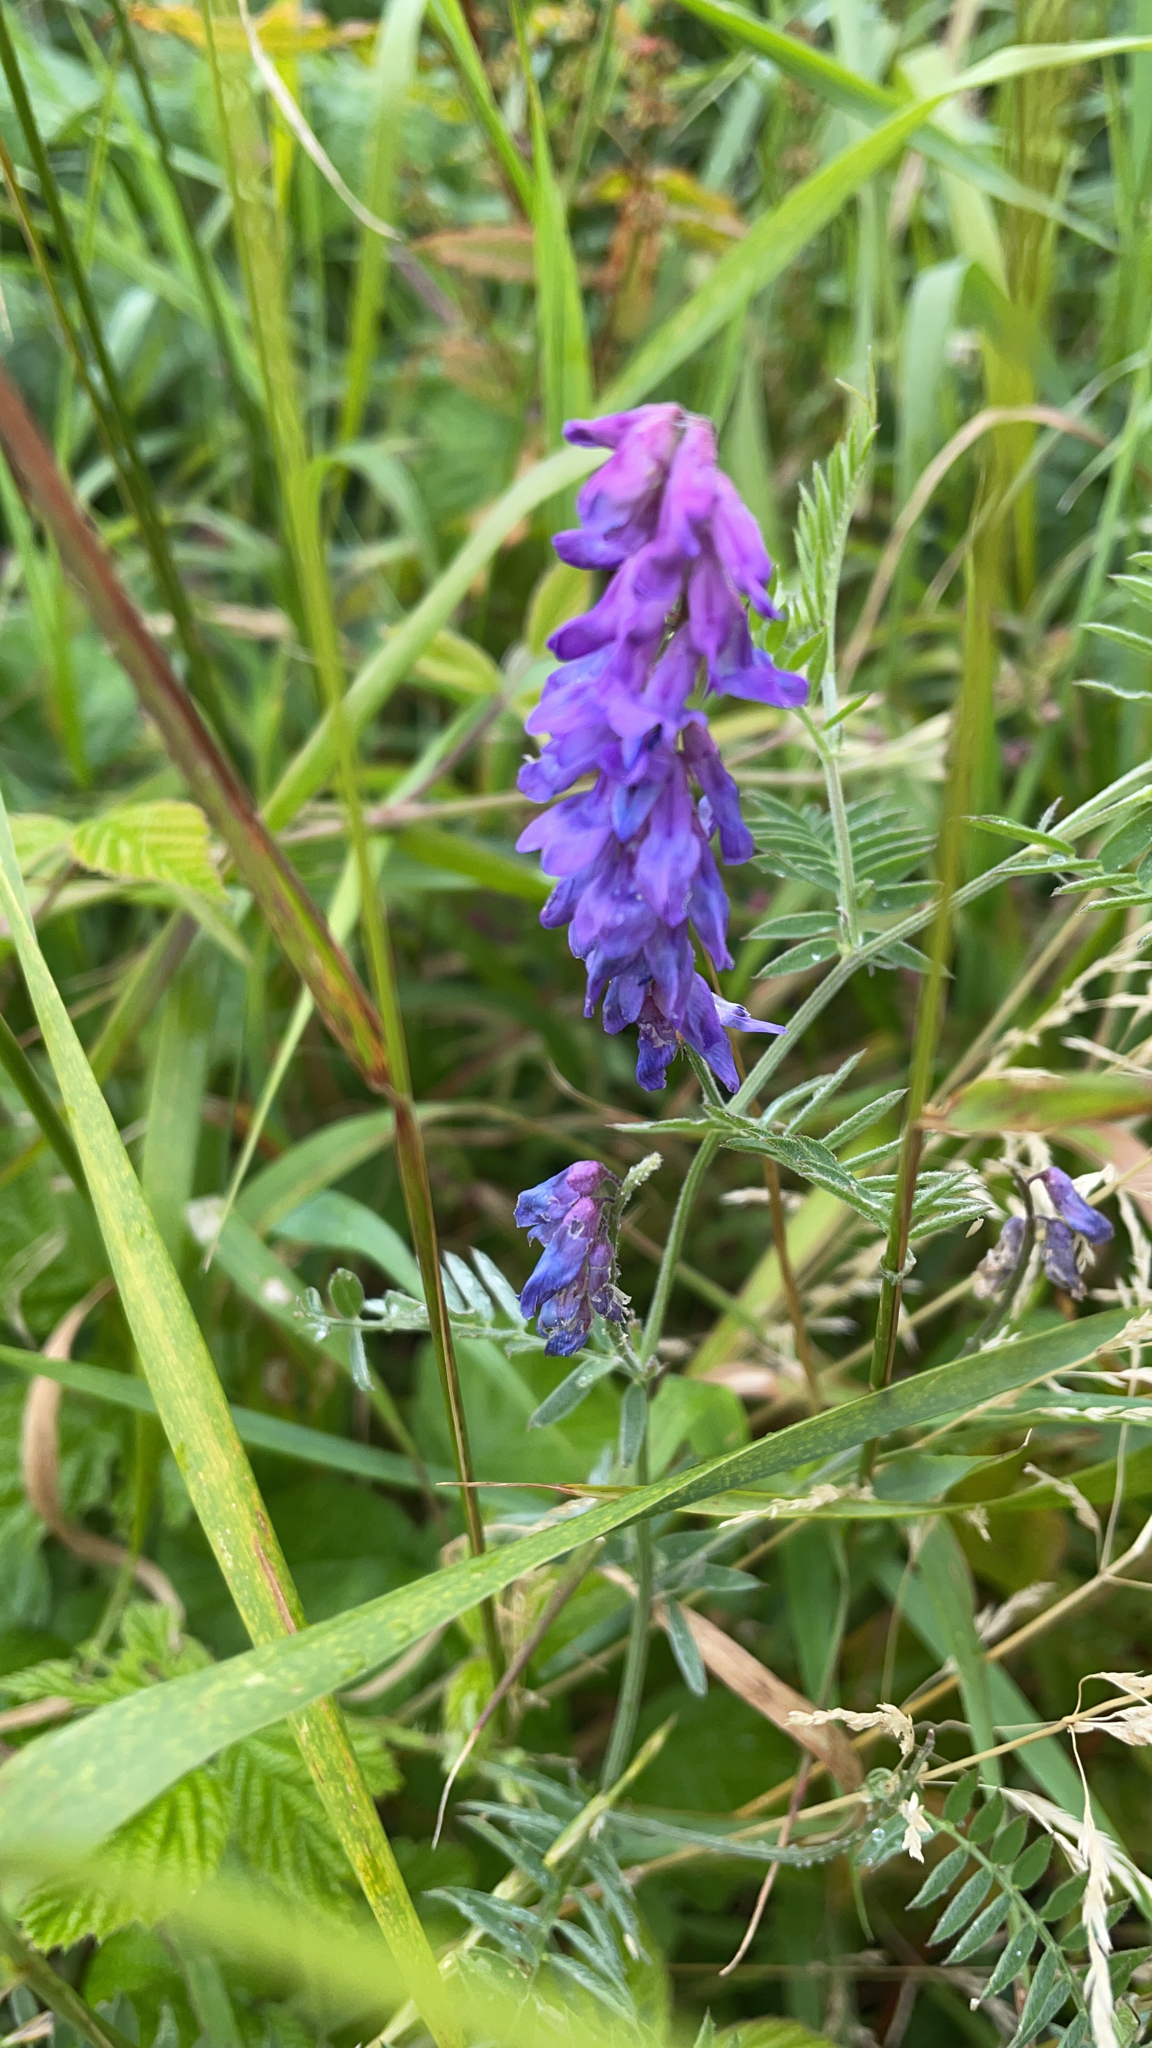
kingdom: Plantae
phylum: Tracheophyta
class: Magnoliopsida
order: Fabales
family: Fabaceae
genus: Vicia
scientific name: Vicia cracca
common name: Bird vetch
